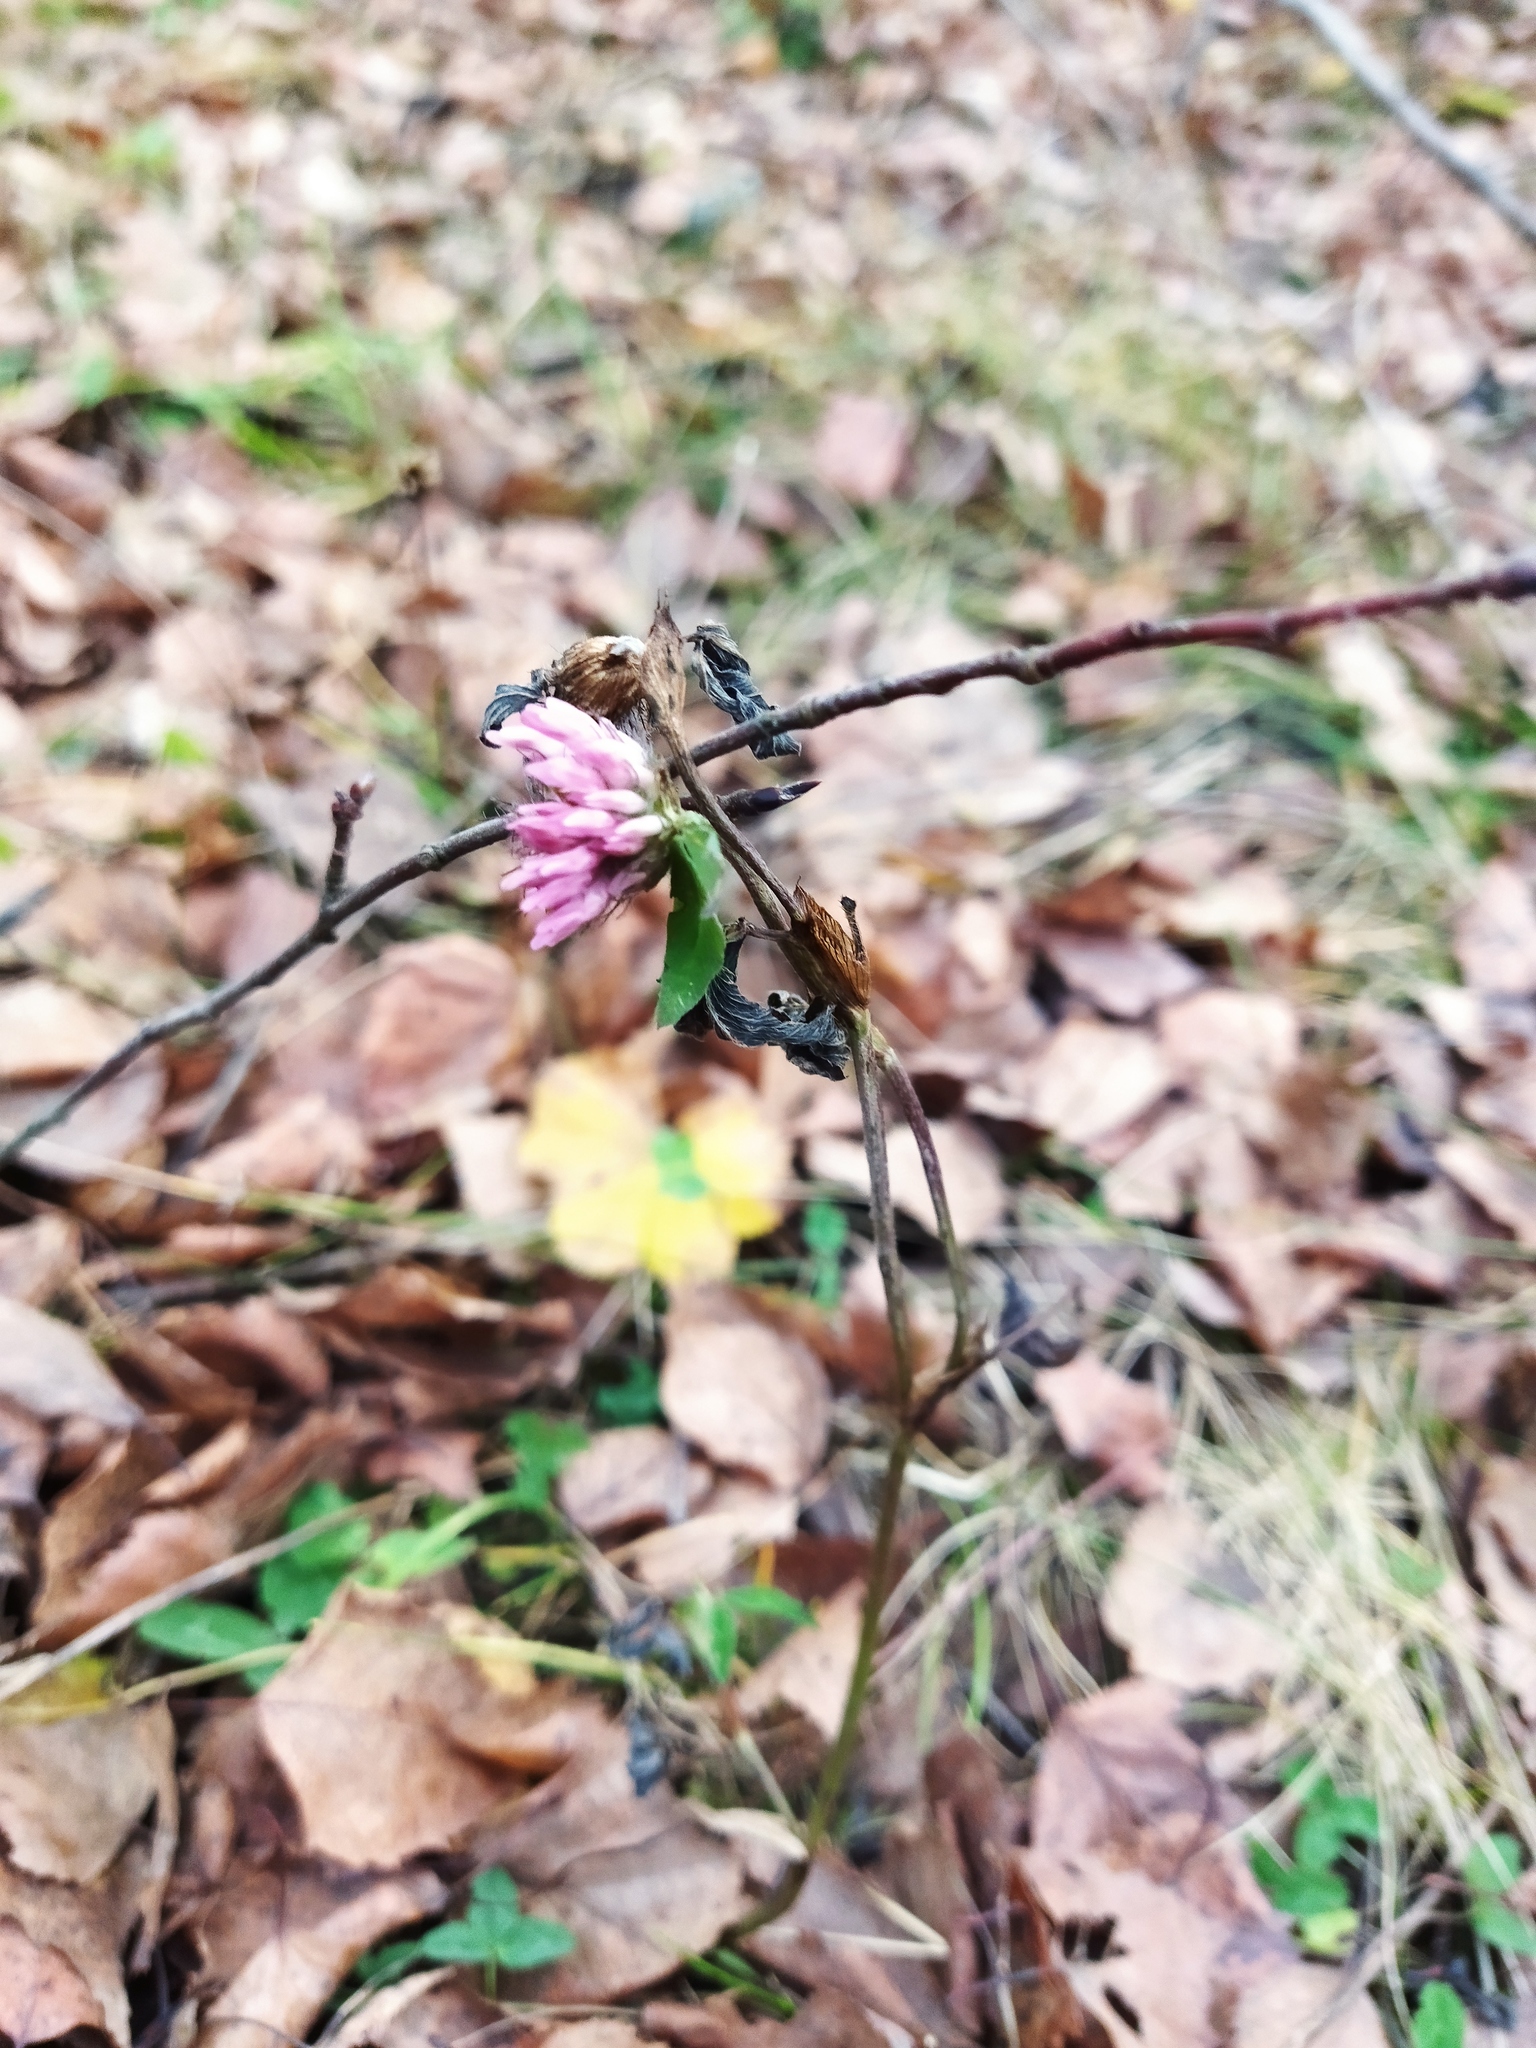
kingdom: Plantae
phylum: Tracheophyta
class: Magnoliopsida
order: Fabales
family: Fabaceae
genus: Trifolium
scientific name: Trifolium pratense
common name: Red clover
